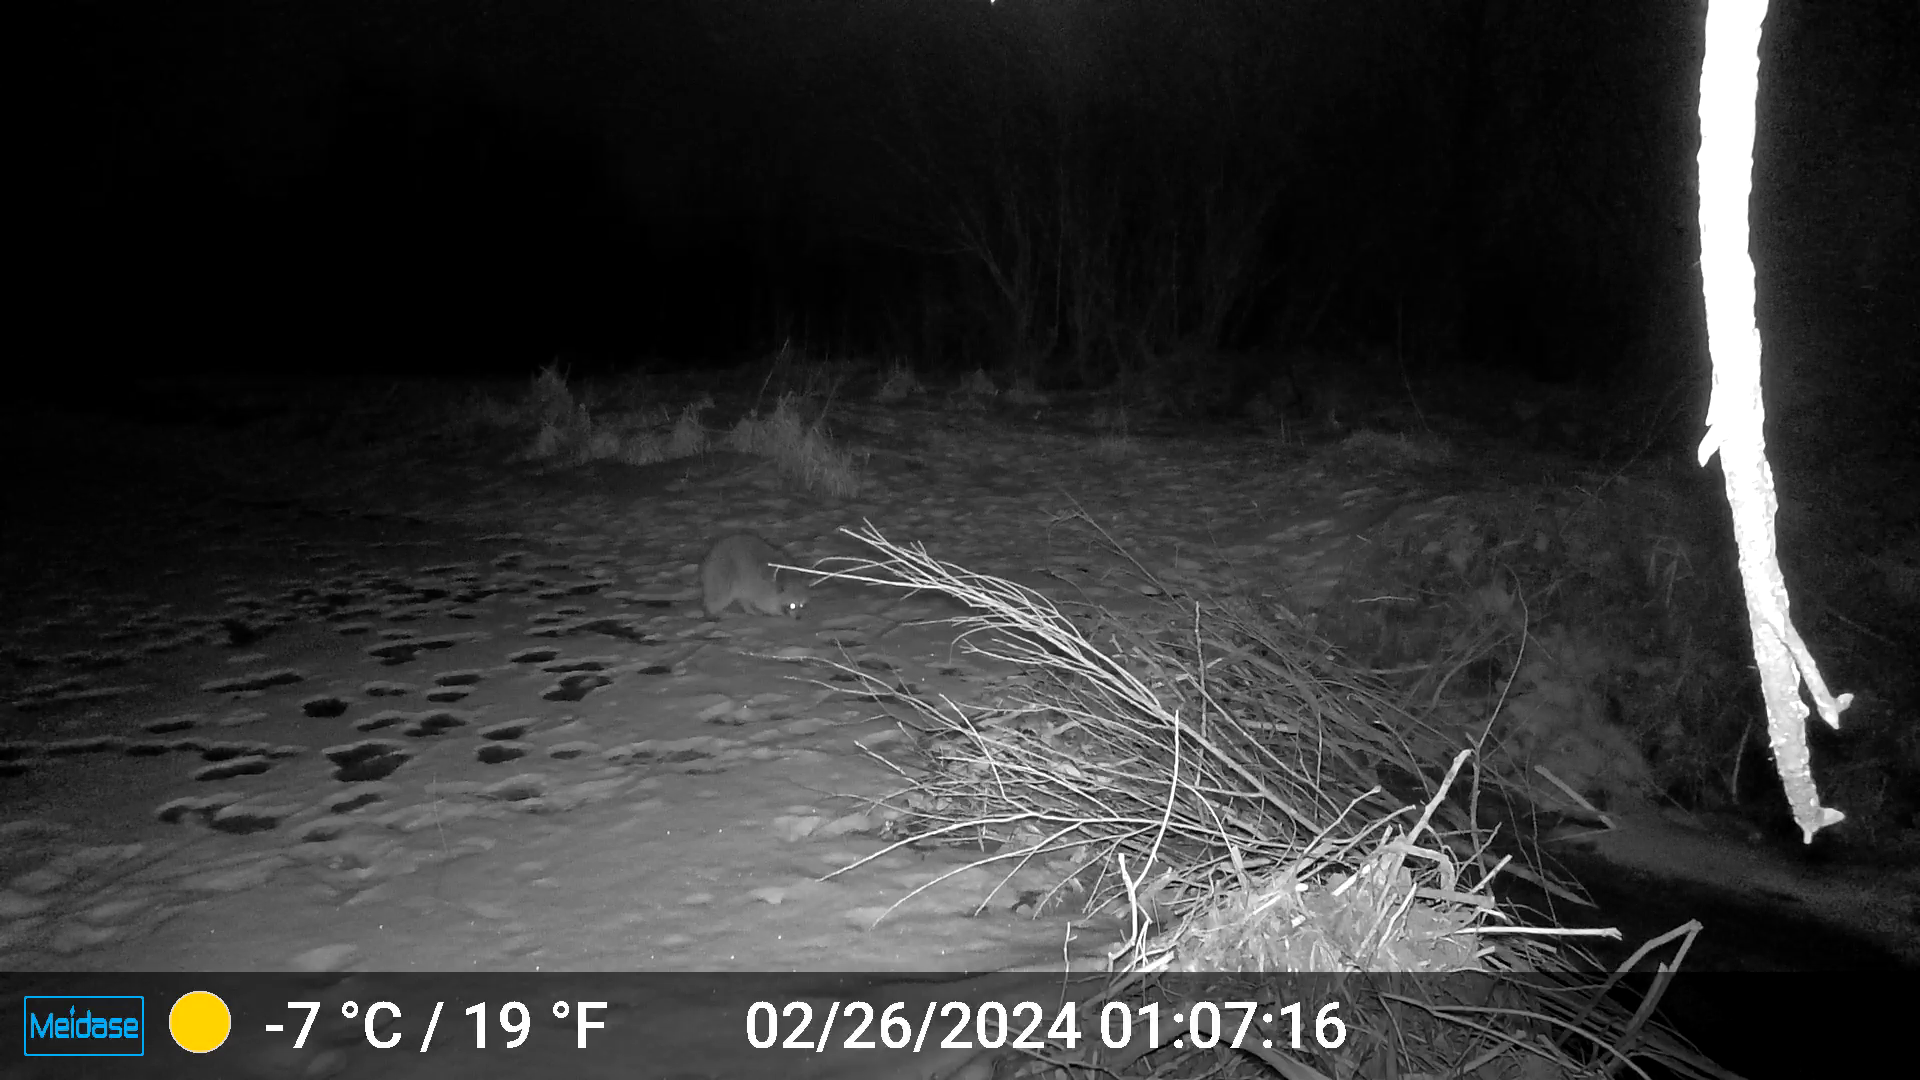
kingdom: Animalia
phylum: Chordata
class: Mammalia
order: Carnivora
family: Procyonidae
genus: Procyon
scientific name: Procyon lotor
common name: Raccoon
